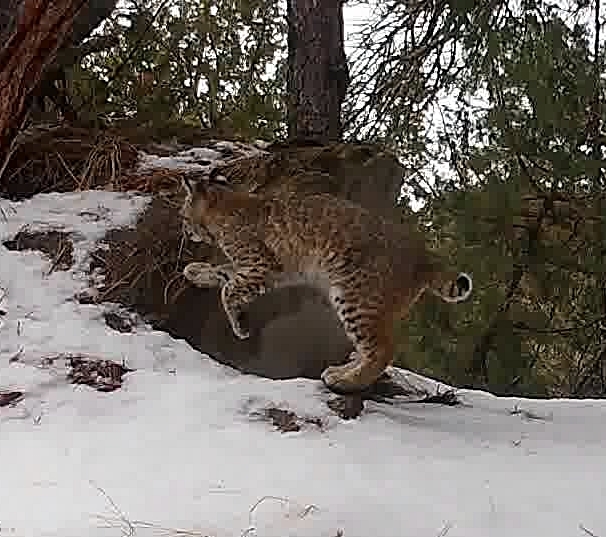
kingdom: Animalia
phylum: Chordata
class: Mammalia
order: Carnivora
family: Felidae
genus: Lynx
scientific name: Lynx rufus
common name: Bobcat
